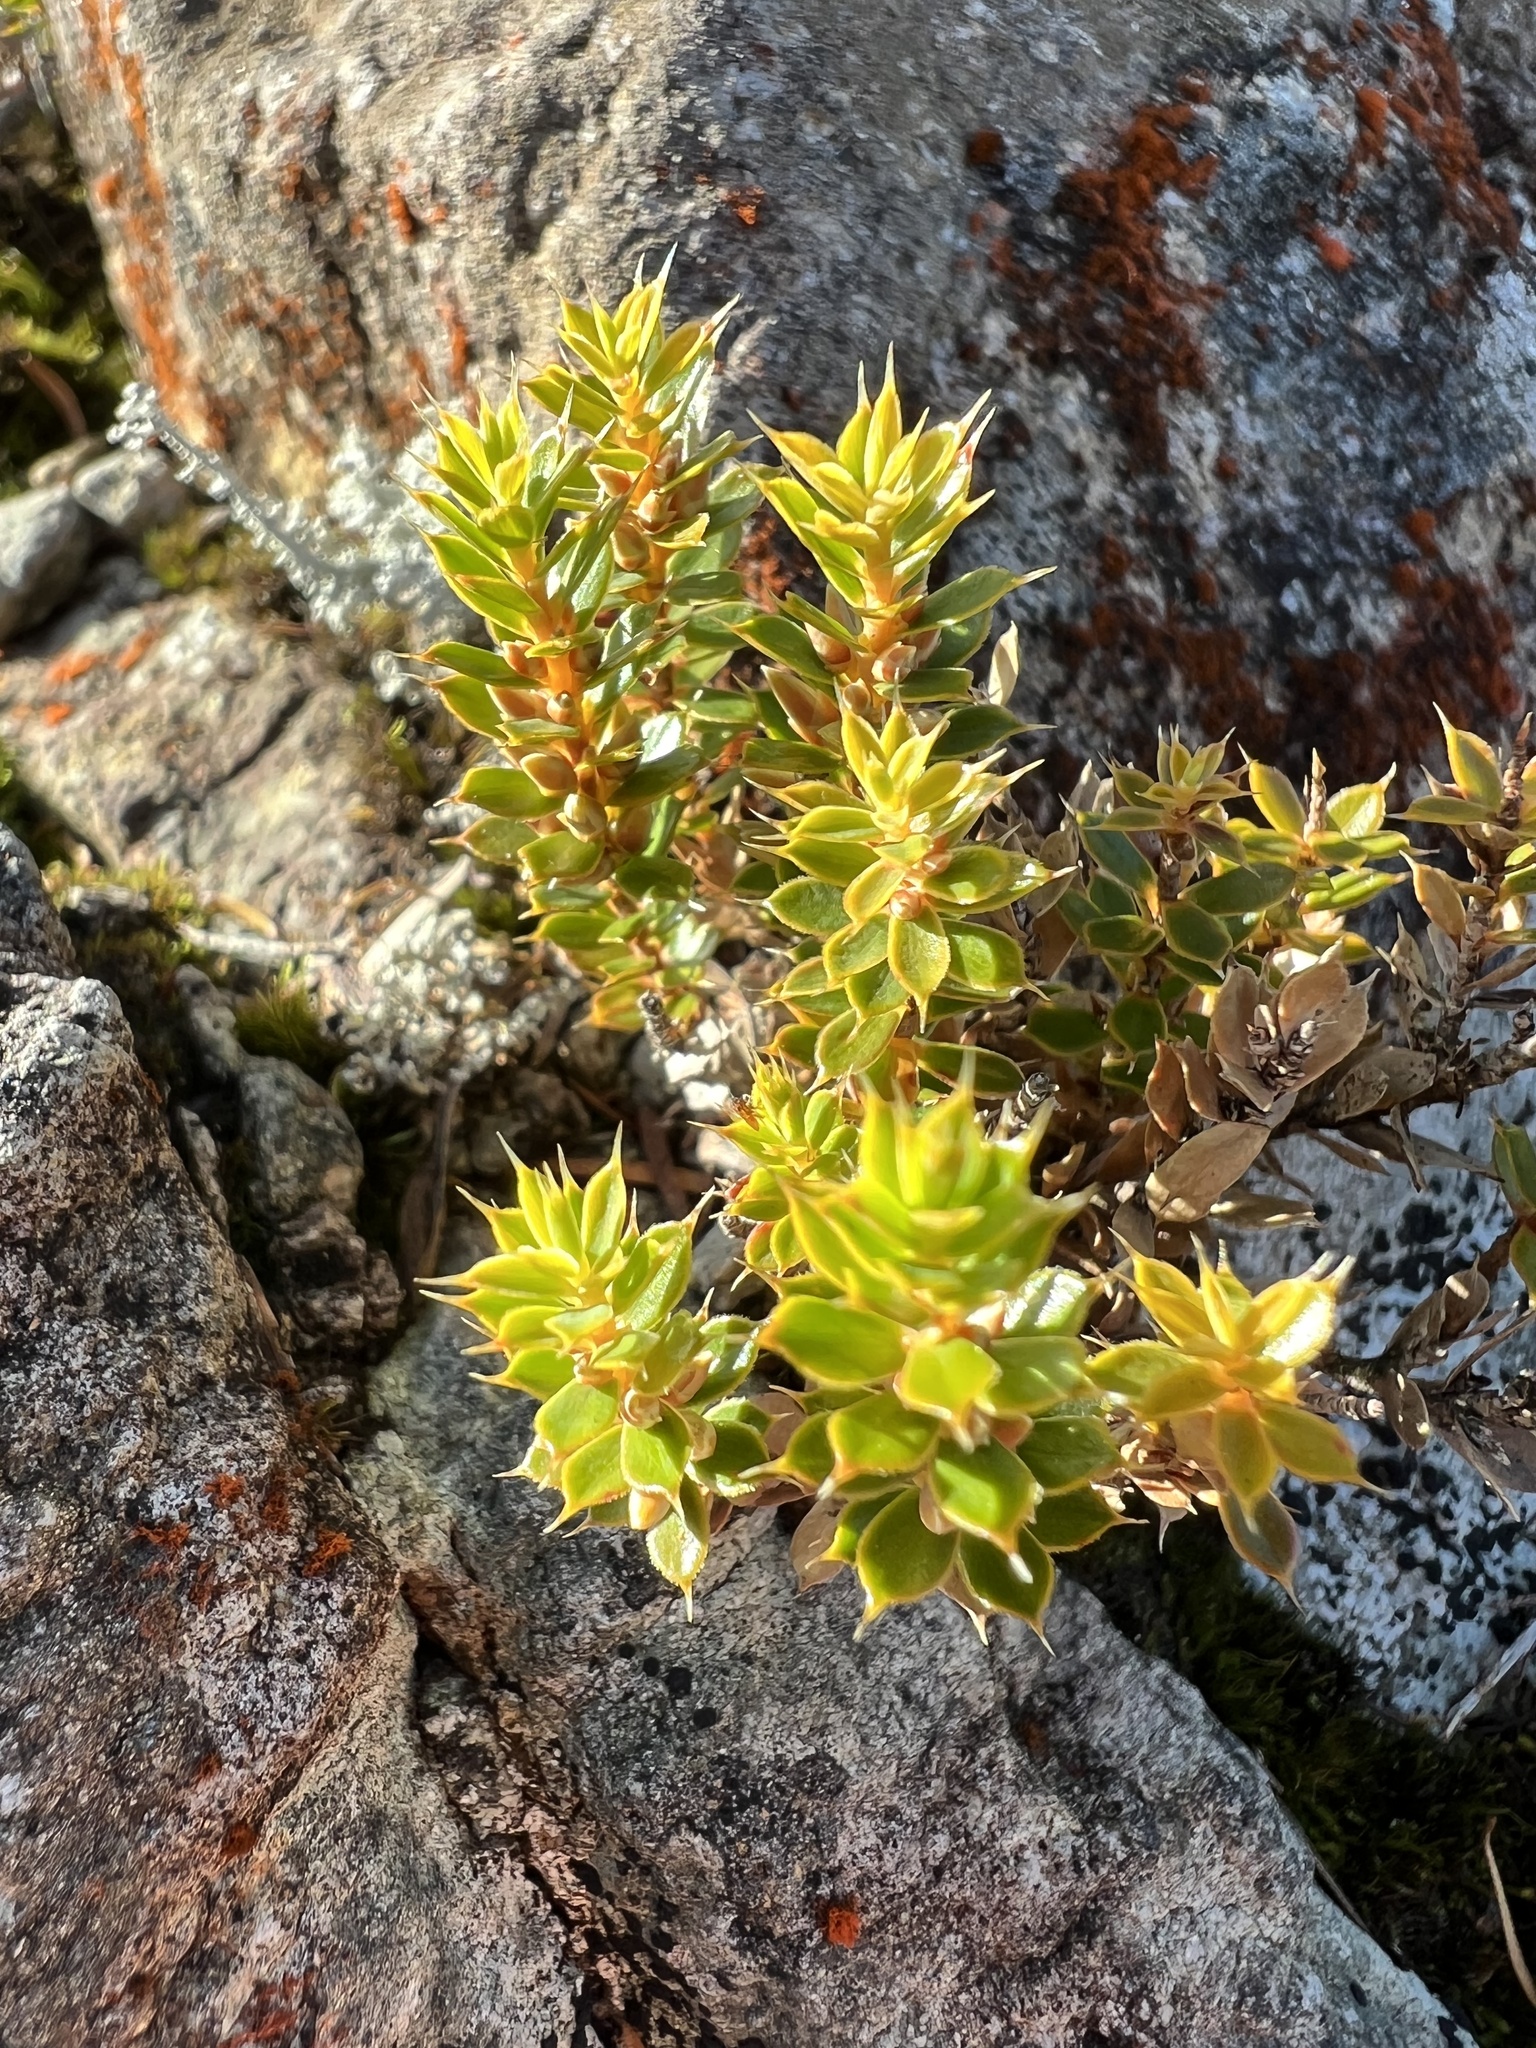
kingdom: Plantae
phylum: Tracheophyta
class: Magnoliopsida
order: Ericales
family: Ericaceae
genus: Styphelia
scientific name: Styphelia nesophila
